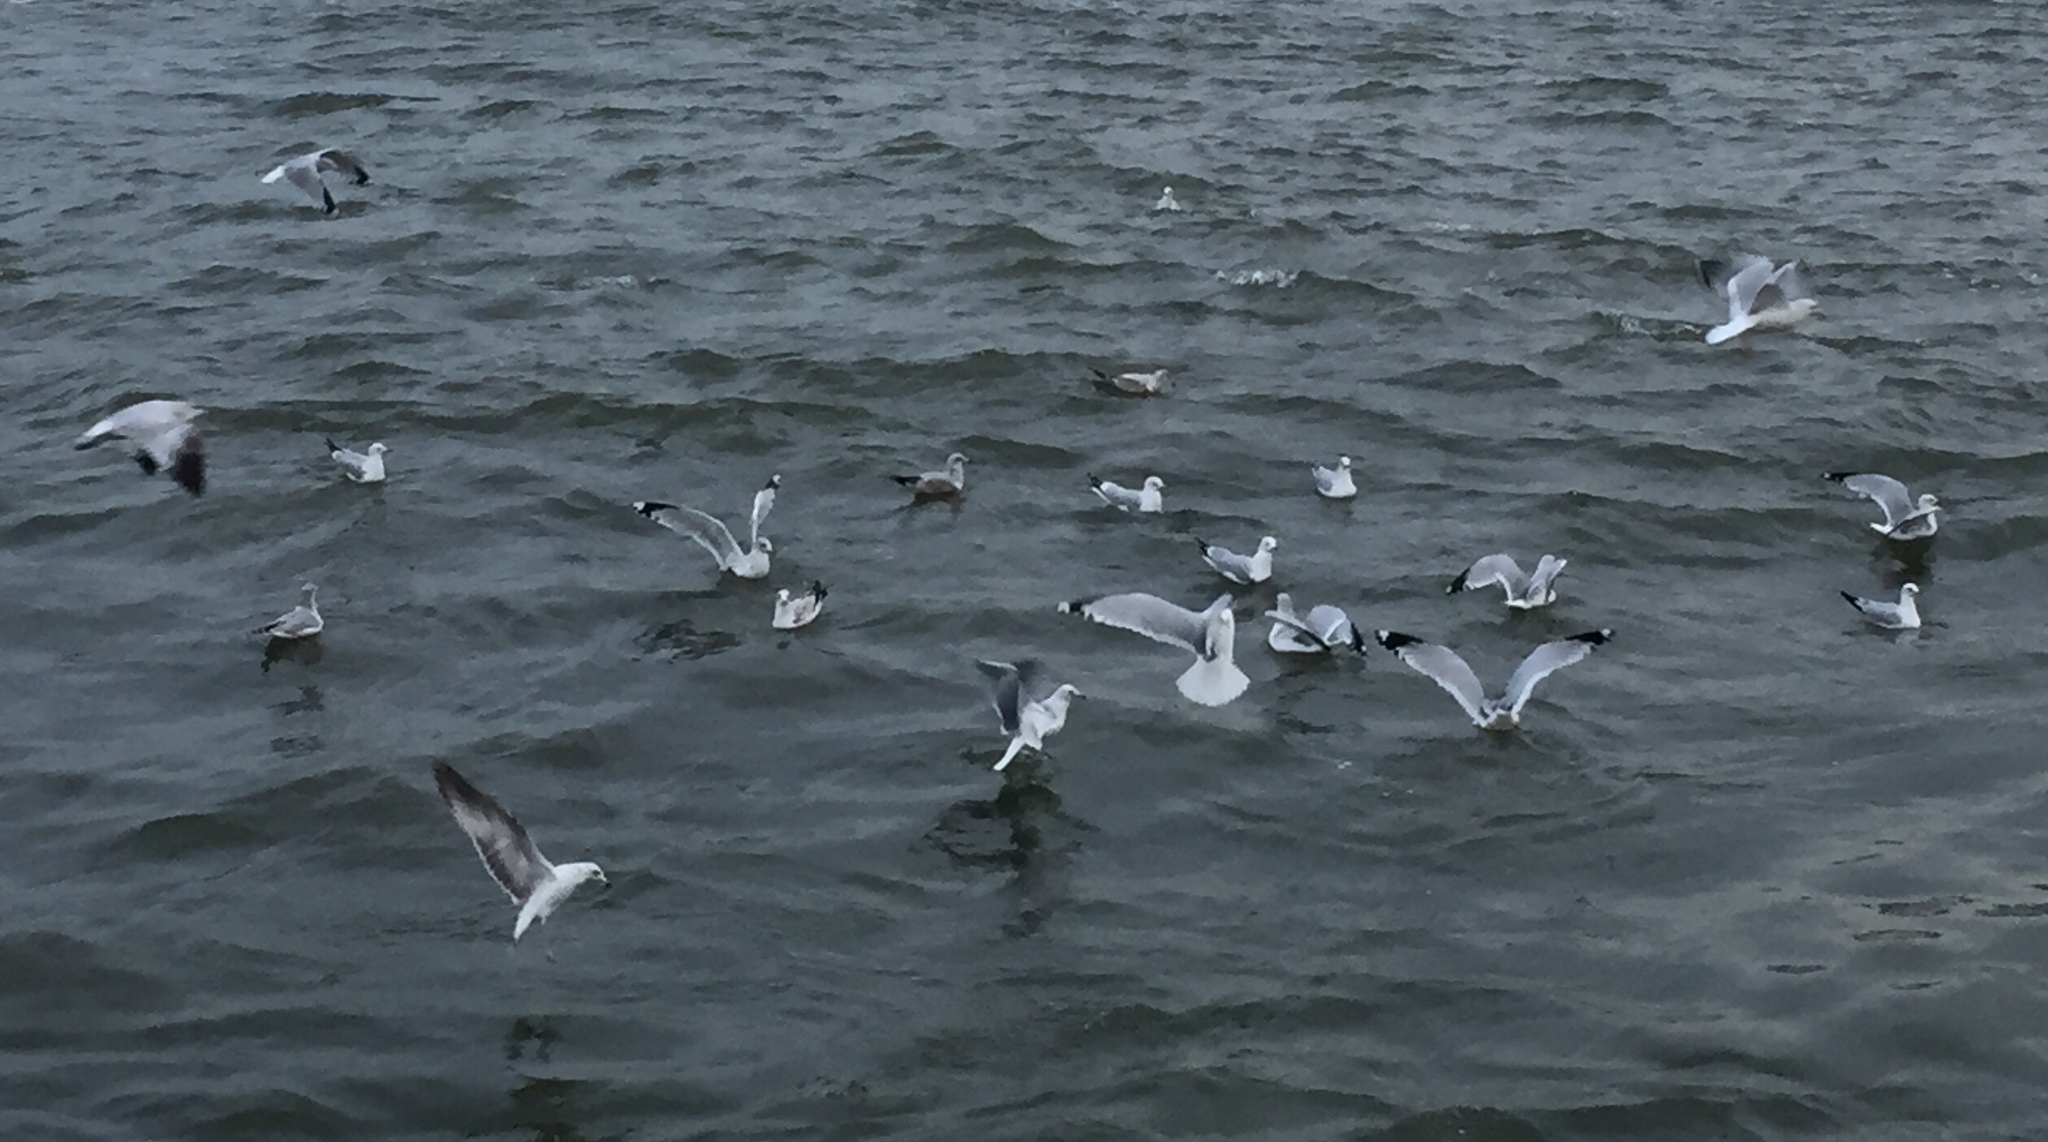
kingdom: Animalia
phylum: Chordata
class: Aves
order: Charadriiformes
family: Laridae
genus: Larus
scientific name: Larus delawarensis
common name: Ring-billed gull
